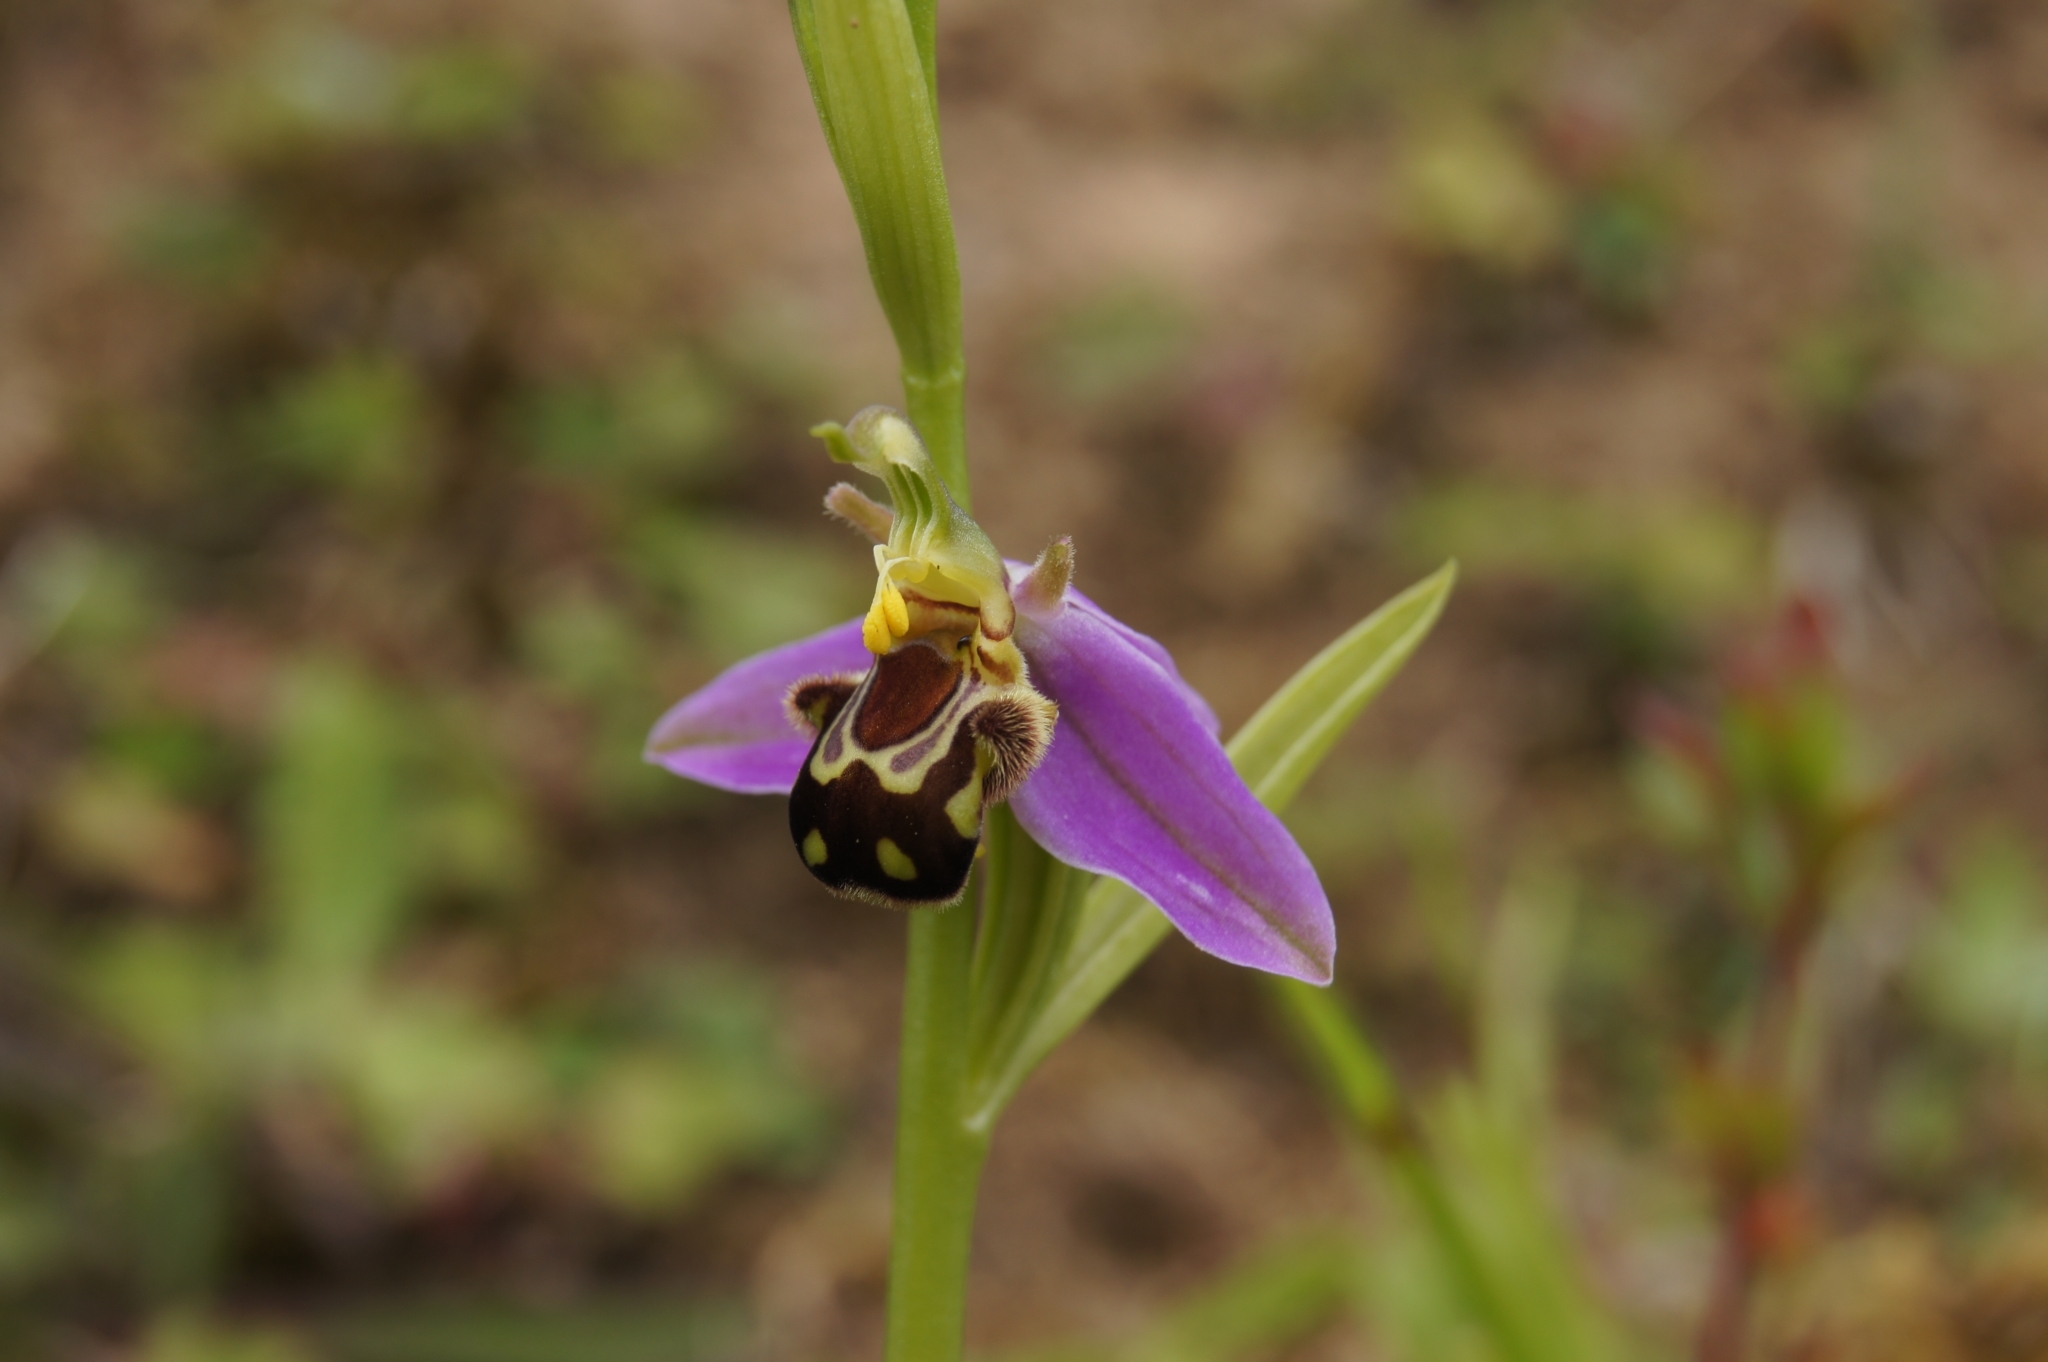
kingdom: Plantae
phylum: Tracheophyta
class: Liliopsida
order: Asparagales
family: Orchidaceae
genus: Ophrys
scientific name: Ophrys apifera
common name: Bee orchid
